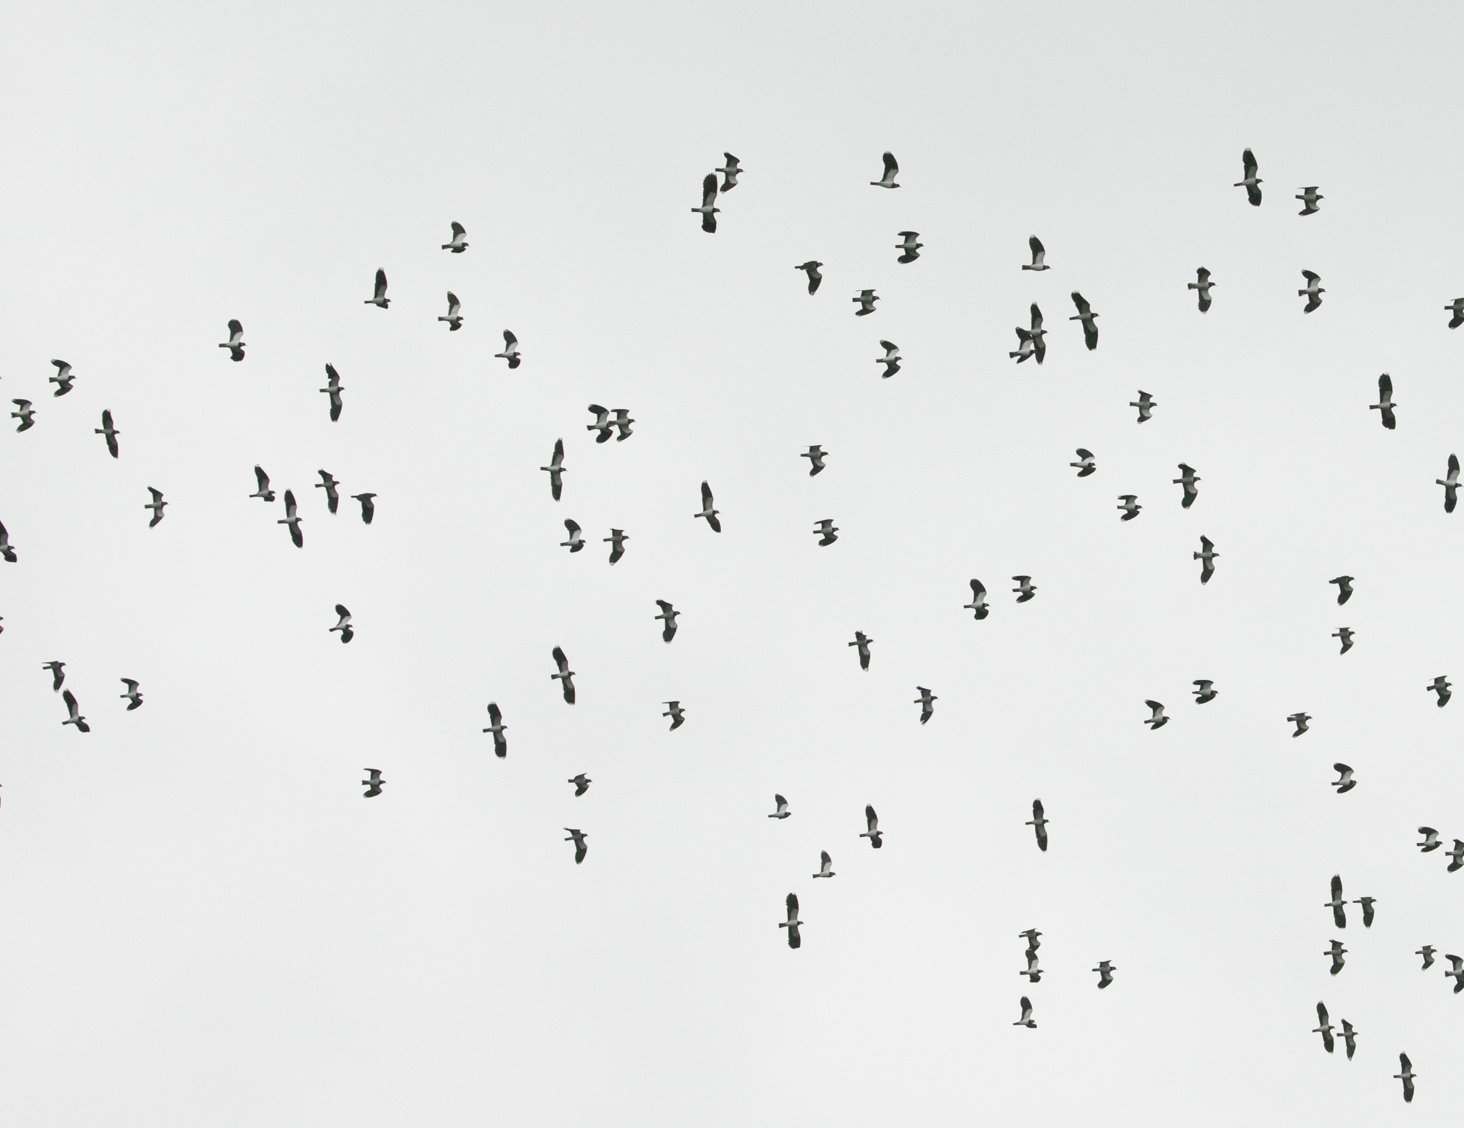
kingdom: Animalia
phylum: Chordata
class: Aves
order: Charadriiformes
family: Charadriidae
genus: Vanellus
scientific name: Vanellus vanellus
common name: Northern lapwing
